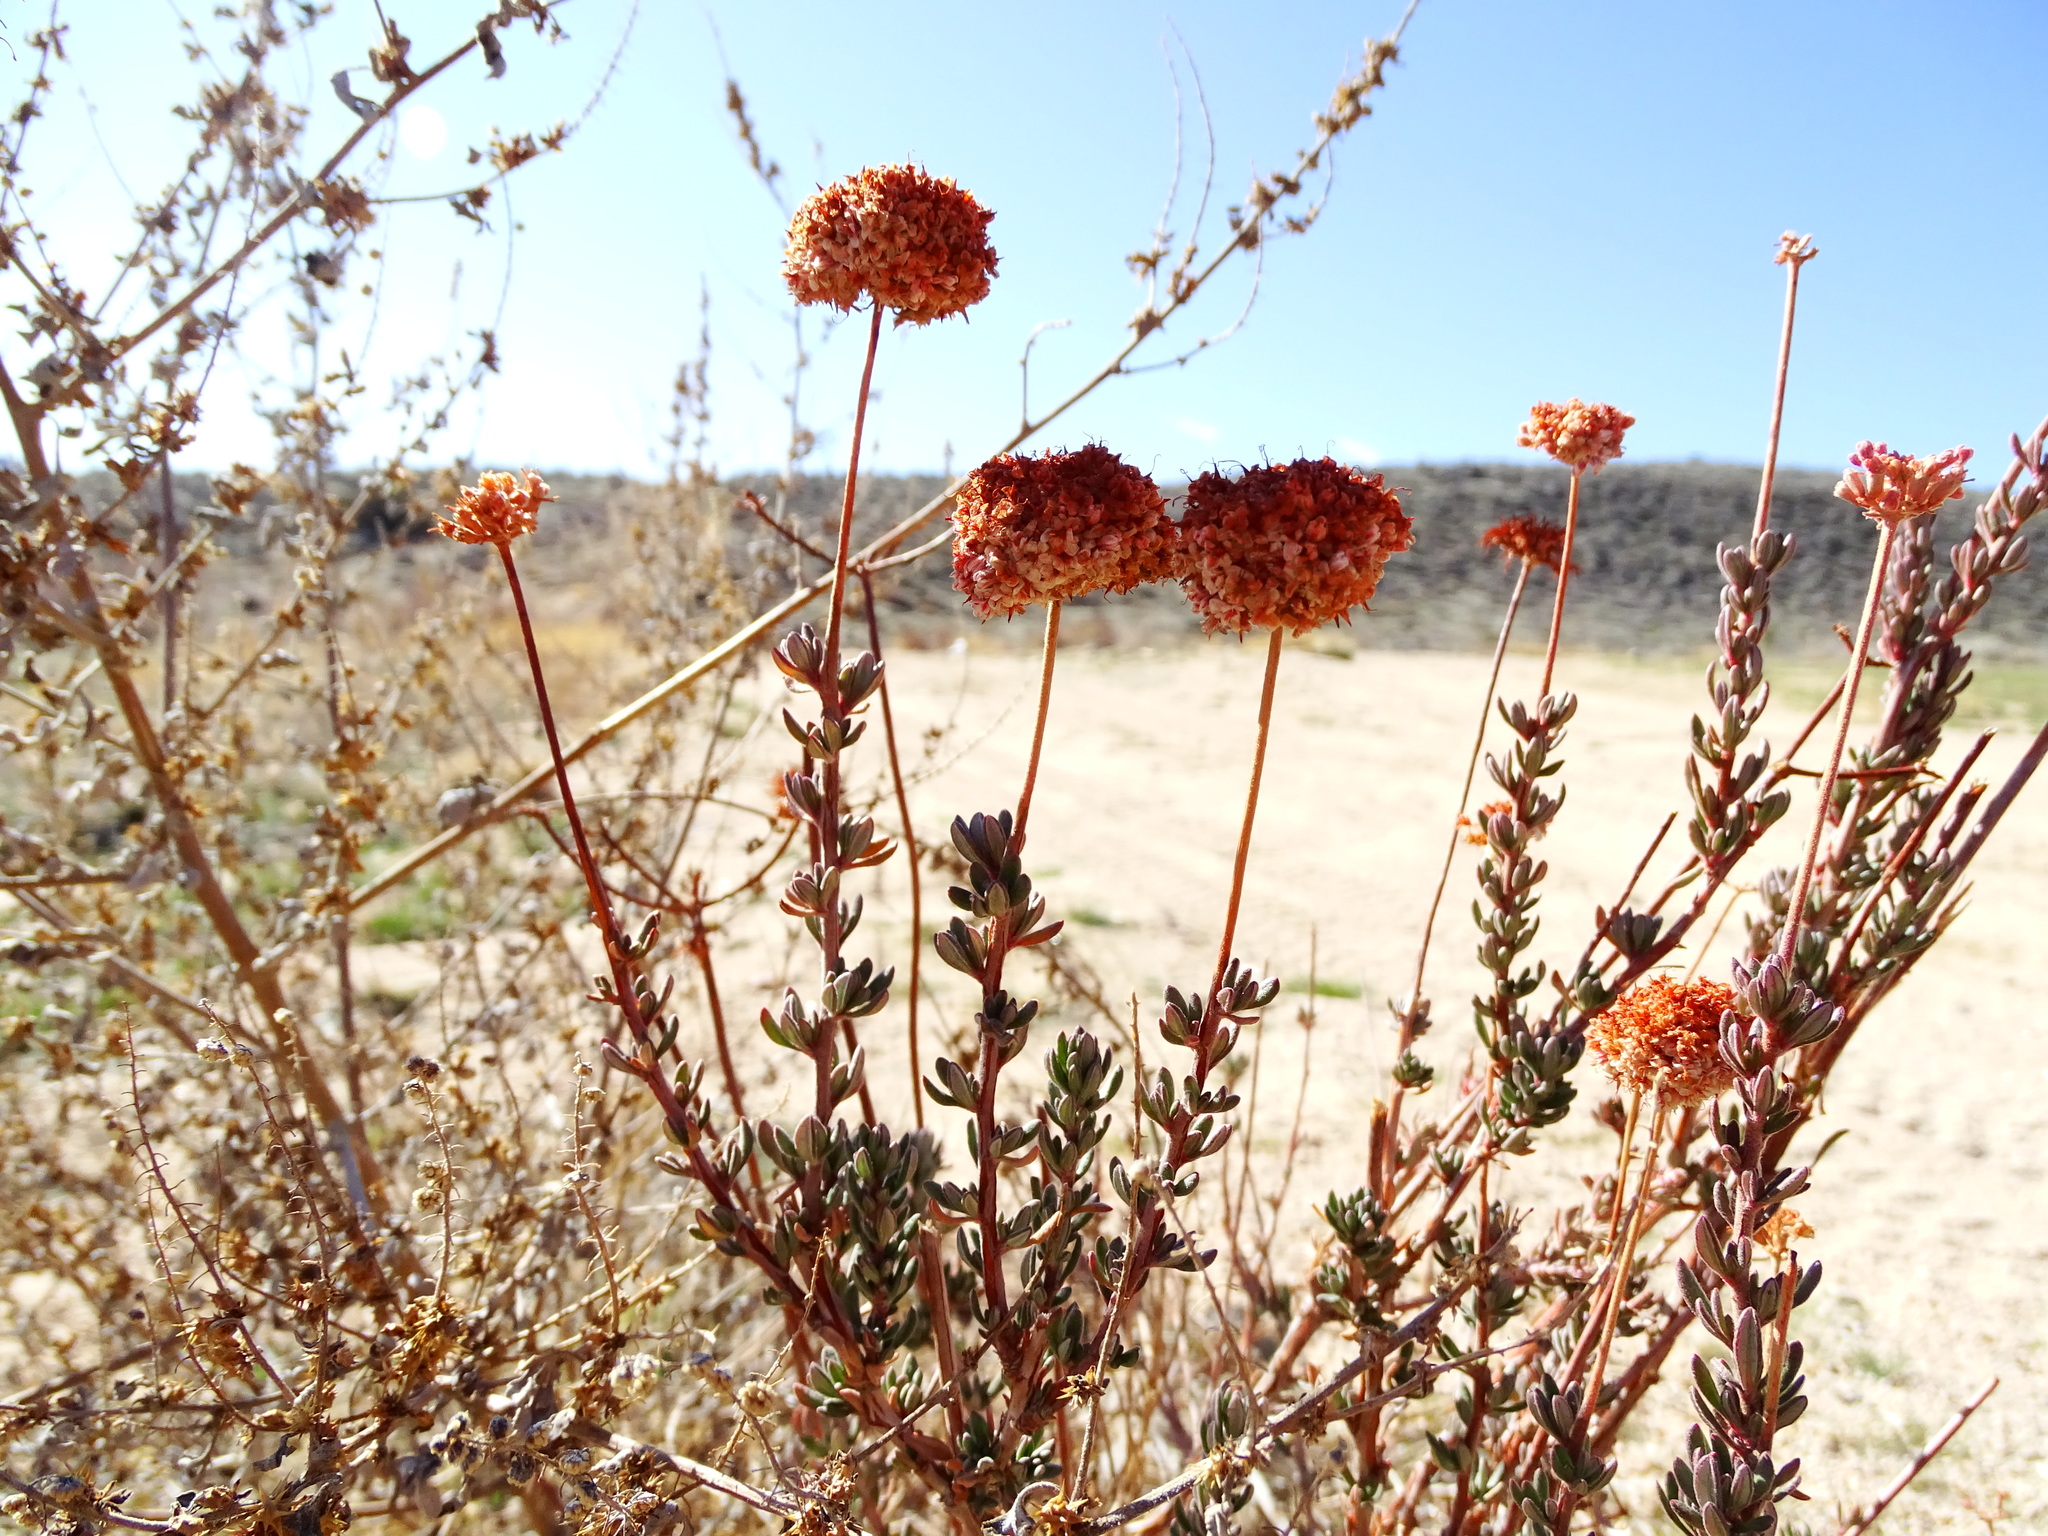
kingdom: Plantae
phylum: Tracheophyta
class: Magnoliopsida
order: Caryophyllales
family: Polygonaceae
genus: Eriogonum
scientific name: Eriogonum fasciculatum
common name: California wild buckwheat
